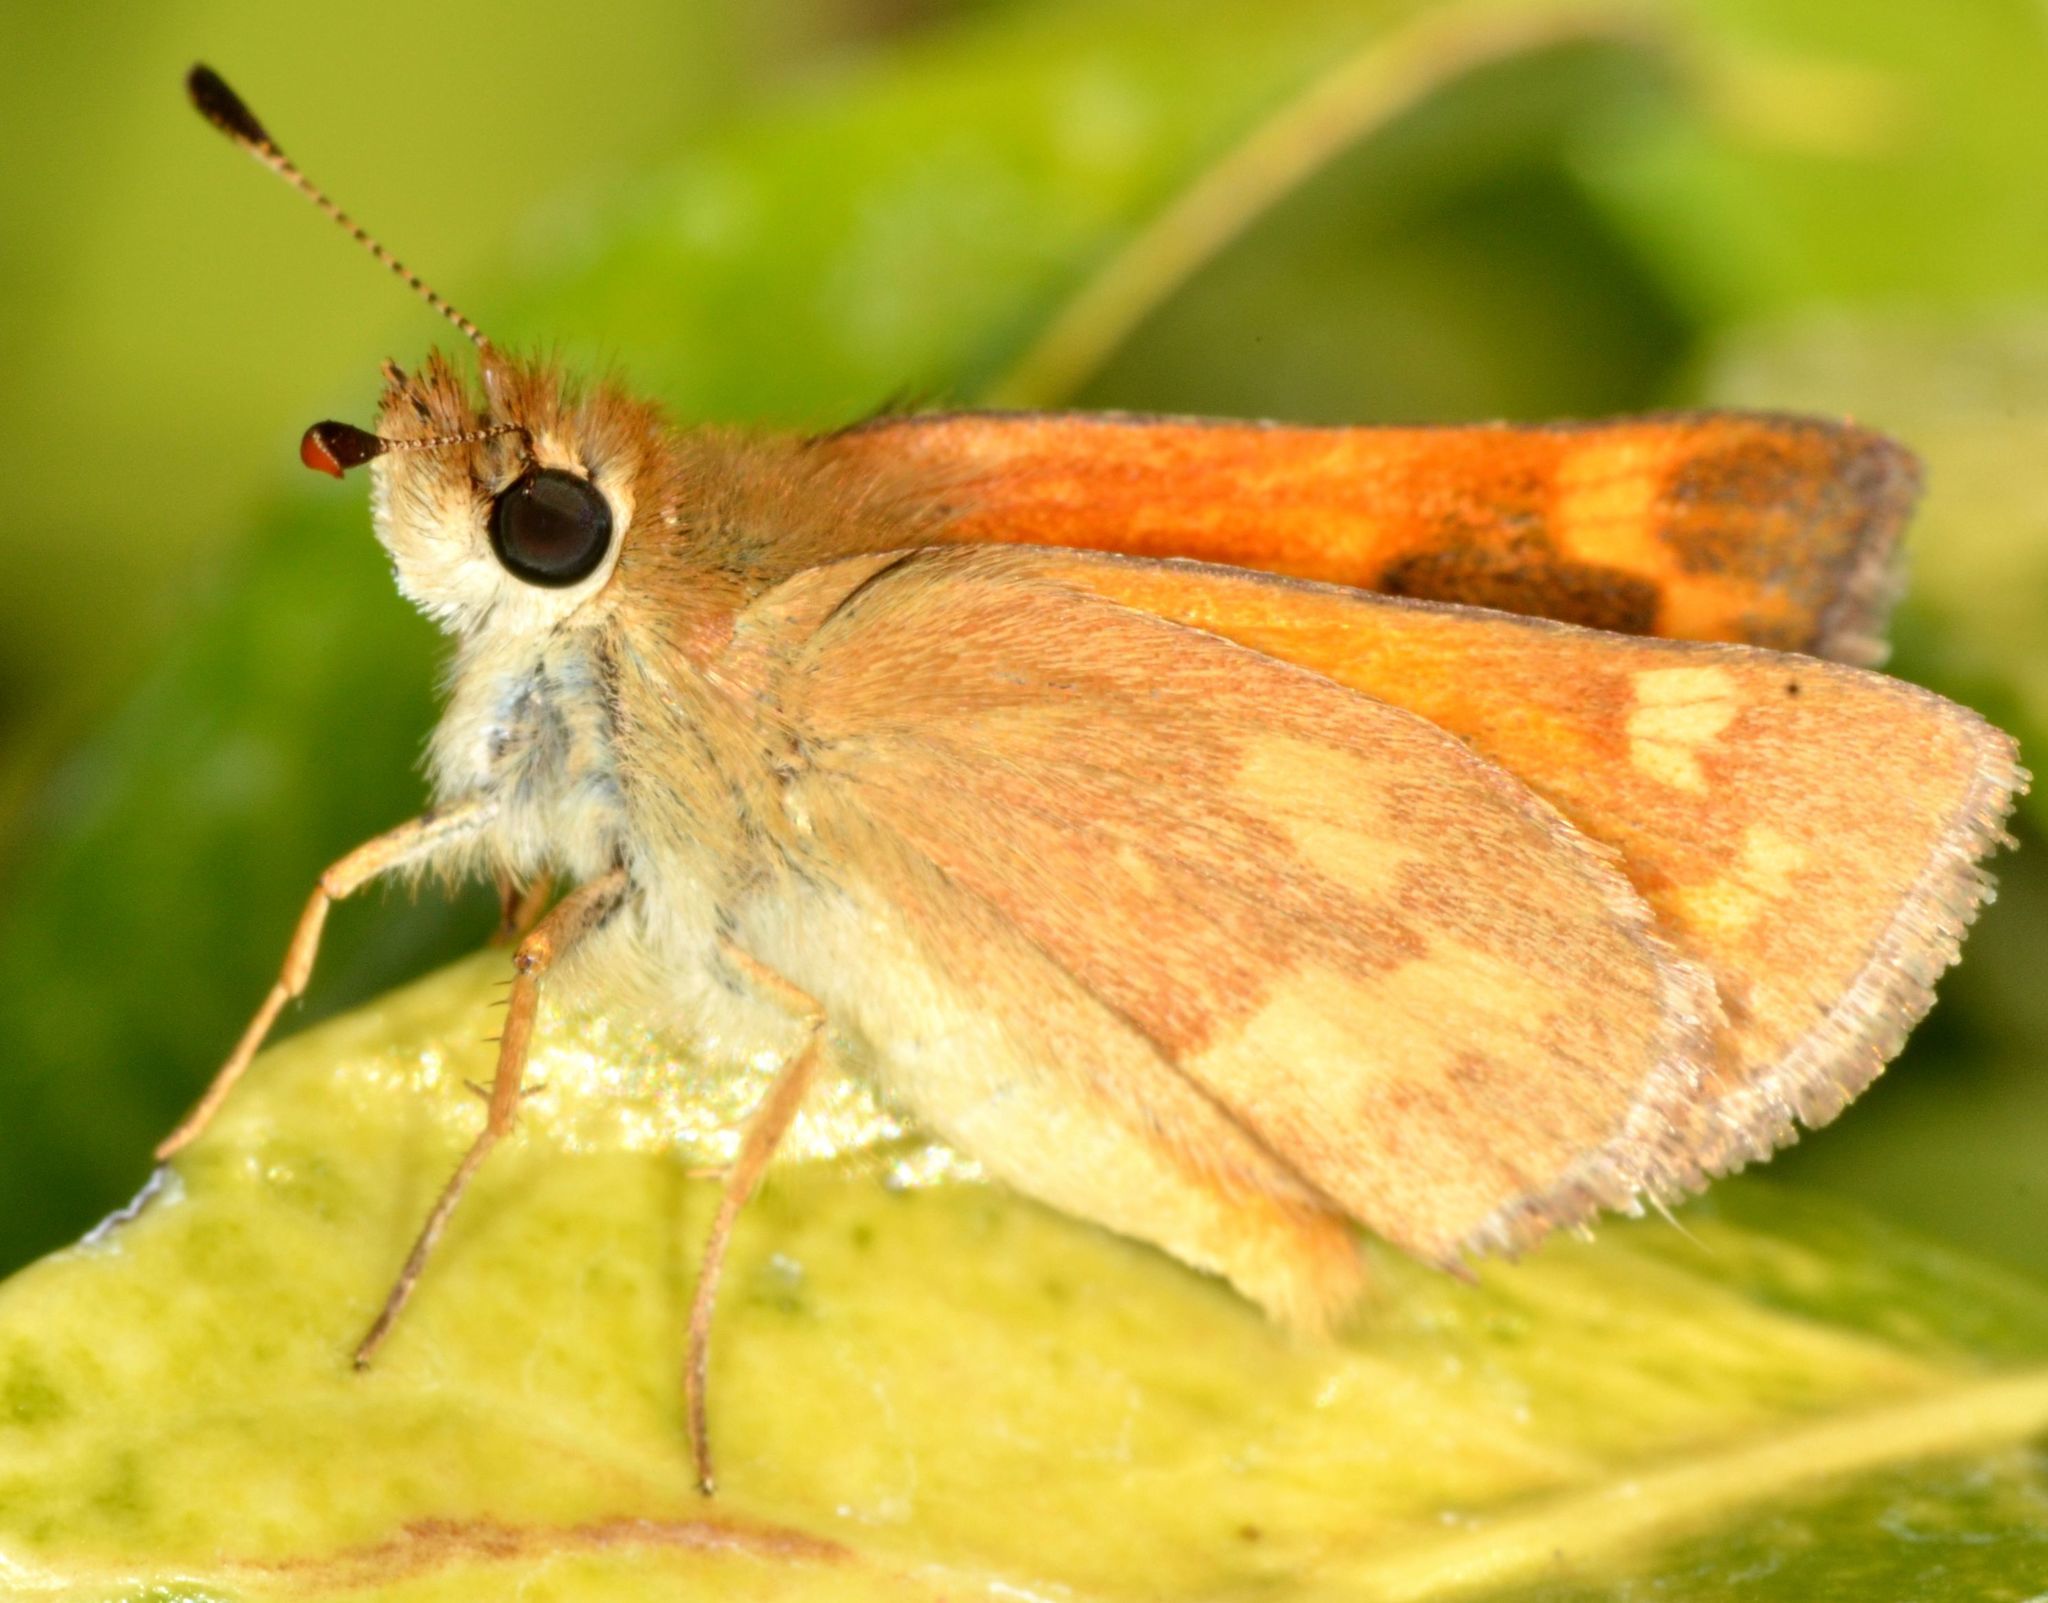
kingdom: Animalia
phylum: Arthropoda
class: Insecta
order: Lepidoptera
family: Hesperiidae
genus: Ochlodes
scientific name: Ochlodes sylvanoides
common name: Woodland skipper
